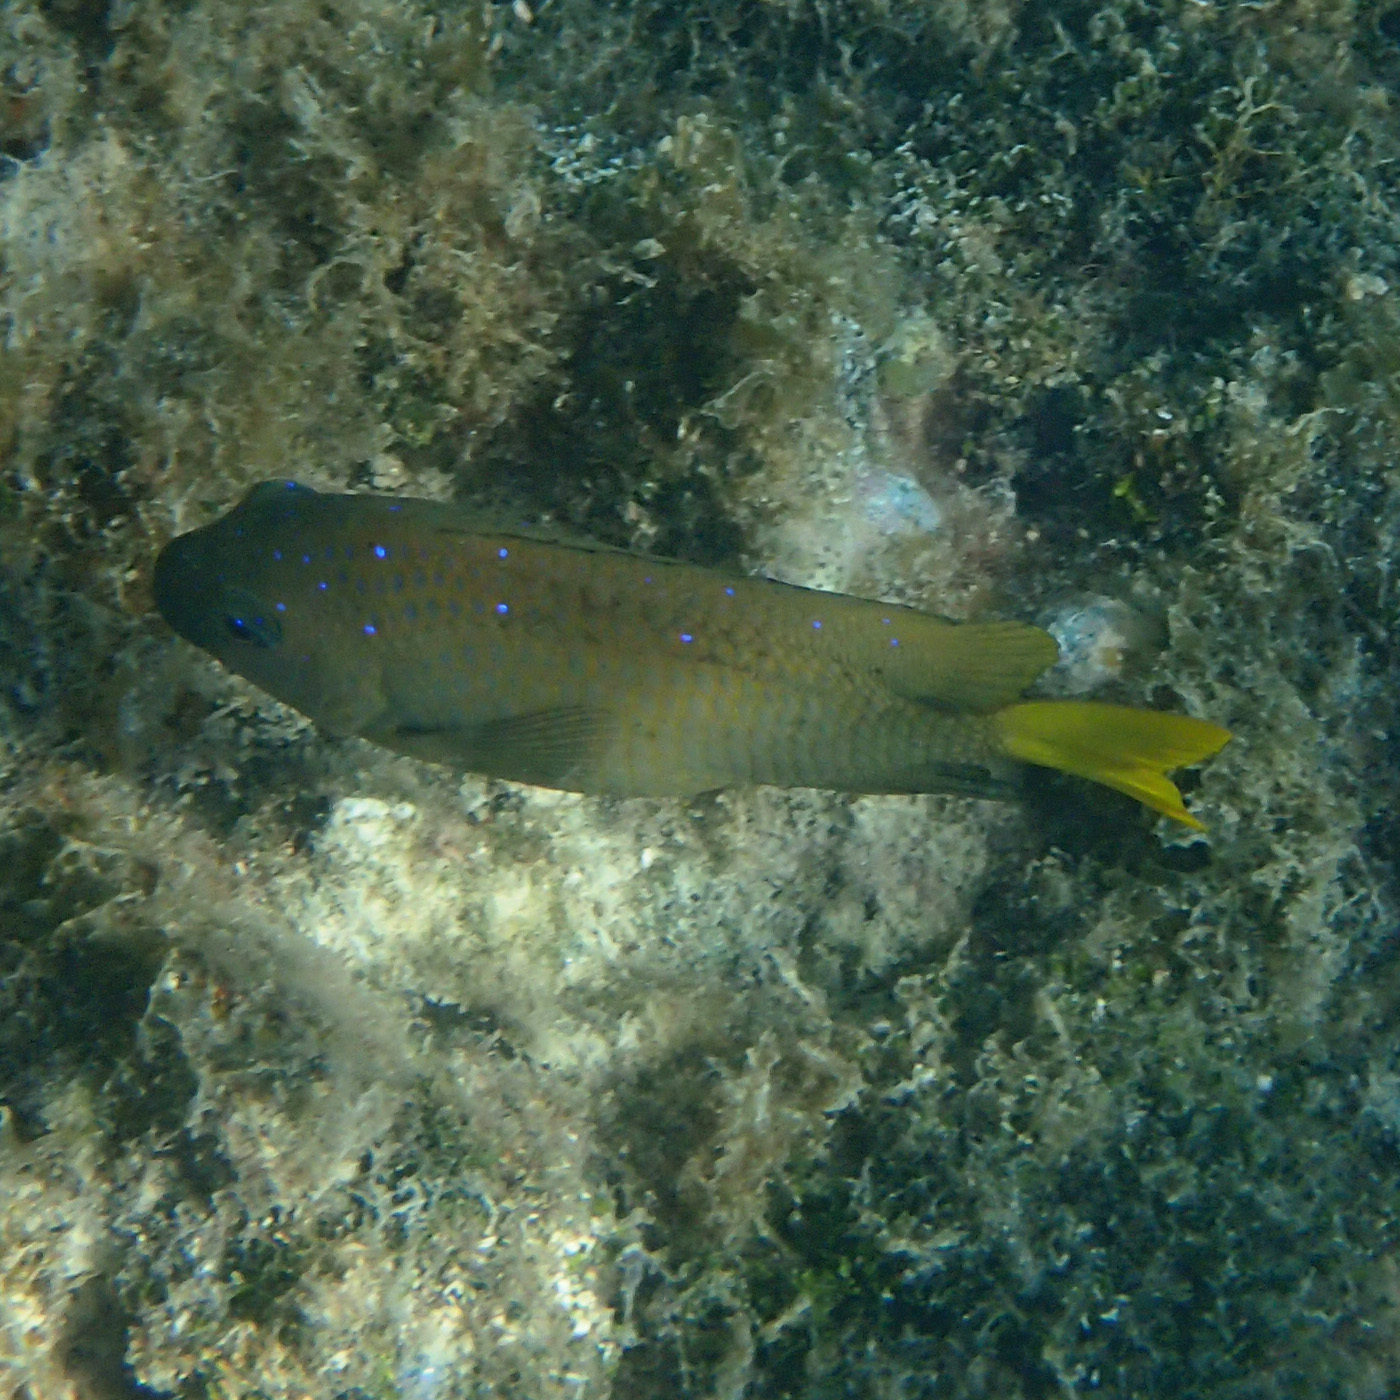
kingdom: Animalia
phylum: Chordata
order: Perciformes
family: Pomacentridae
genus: Microspathodon
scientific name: Microspathodon chrysurus
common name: Yellowtail damselfish
